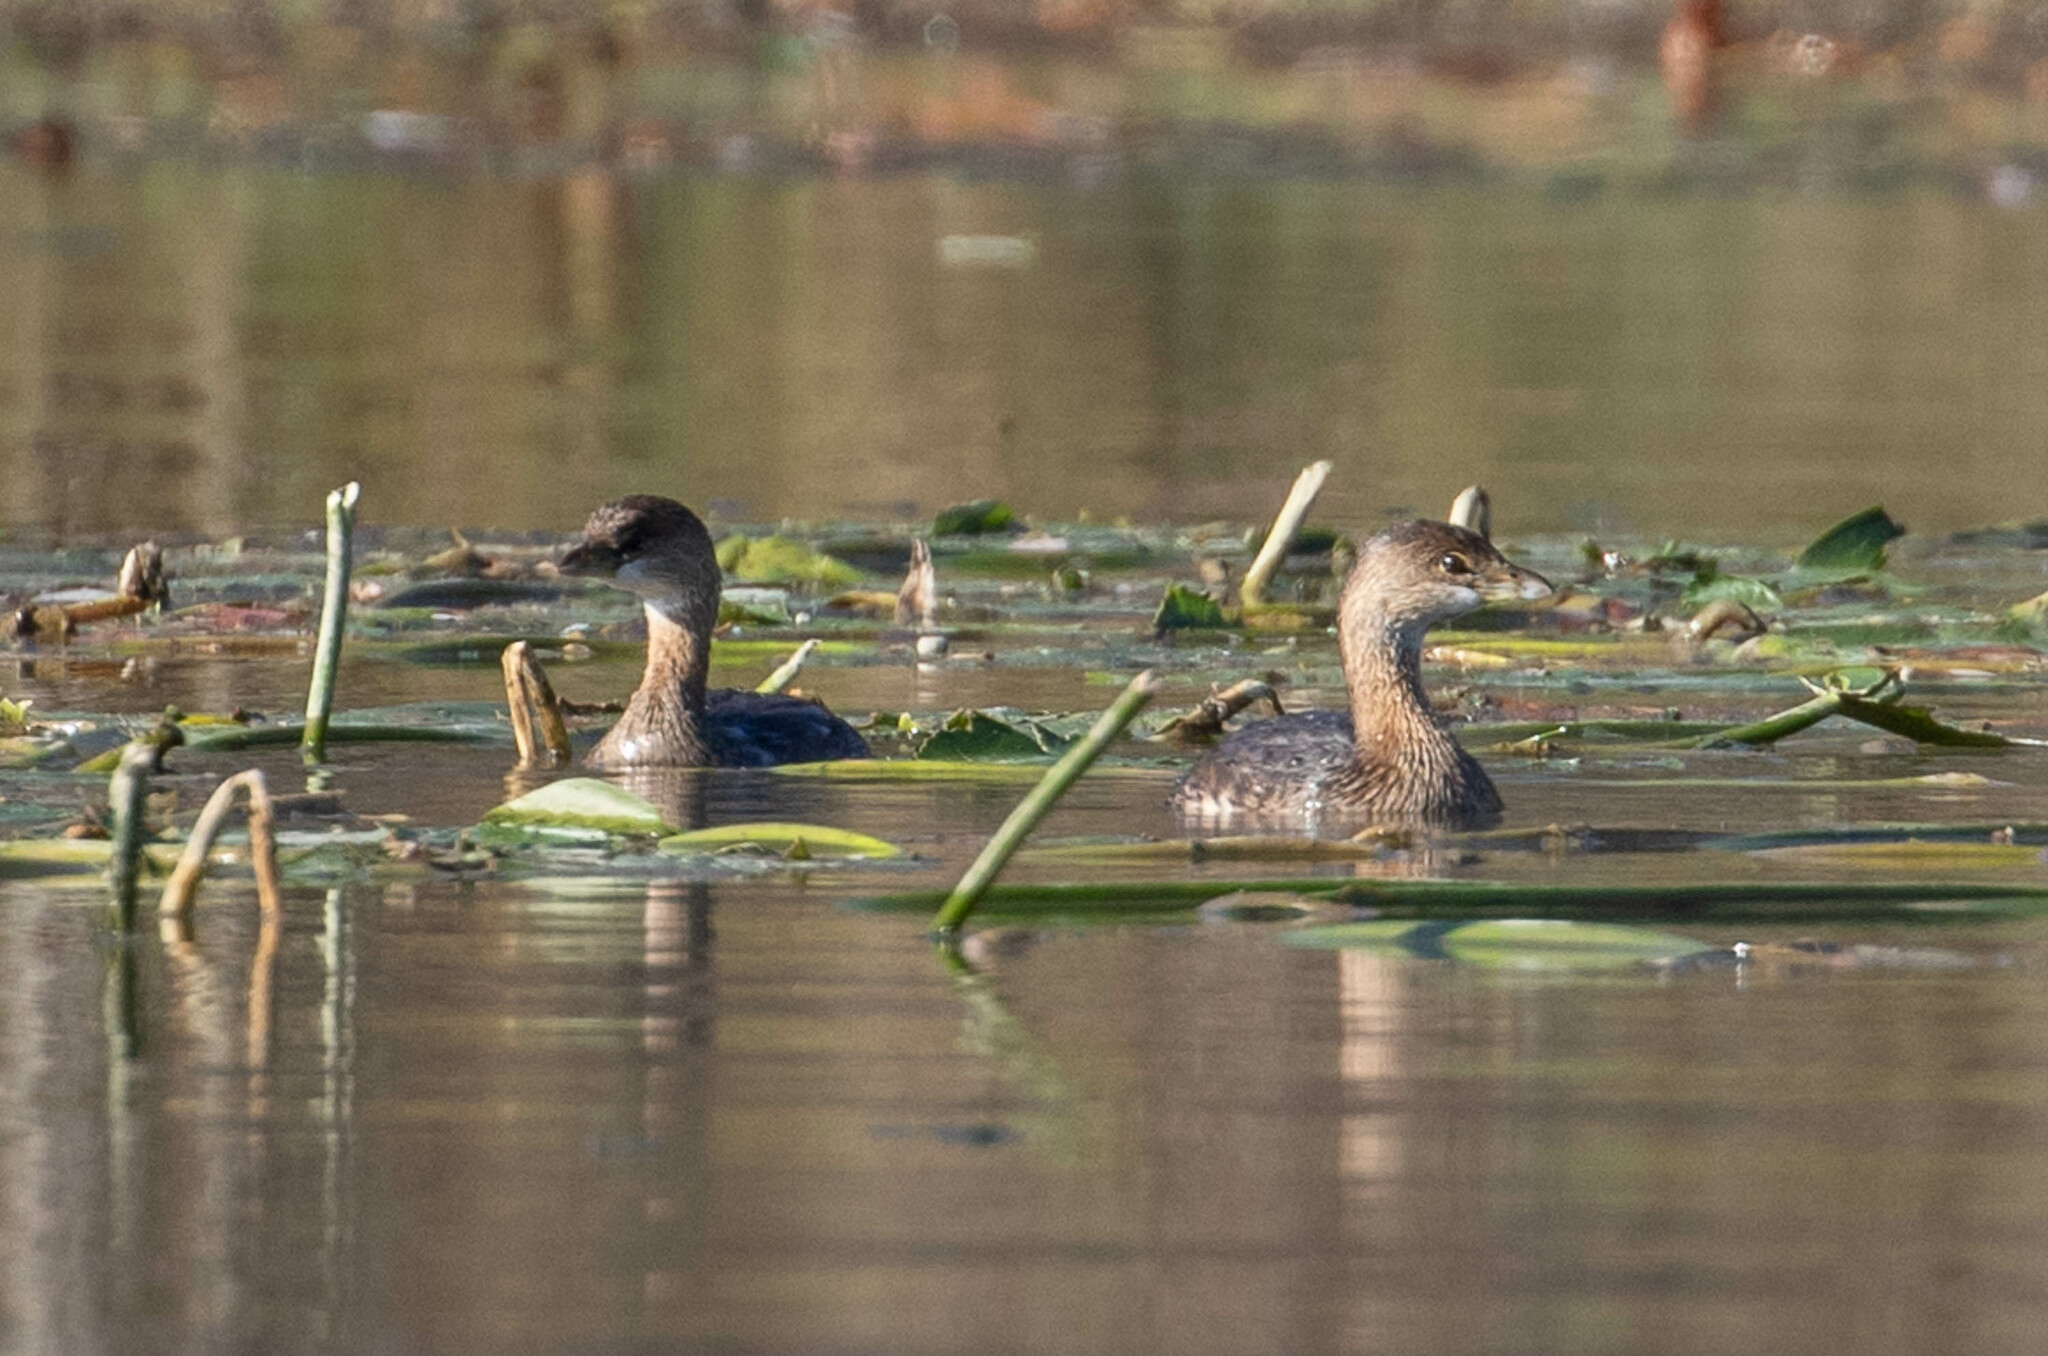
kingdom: Animalia
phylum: Chordata
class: Aves
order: Podicipediformes
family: Podicipedidae
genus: Podilymbus
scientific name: Podilymbus podiceps
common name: Pied-billed grebe
